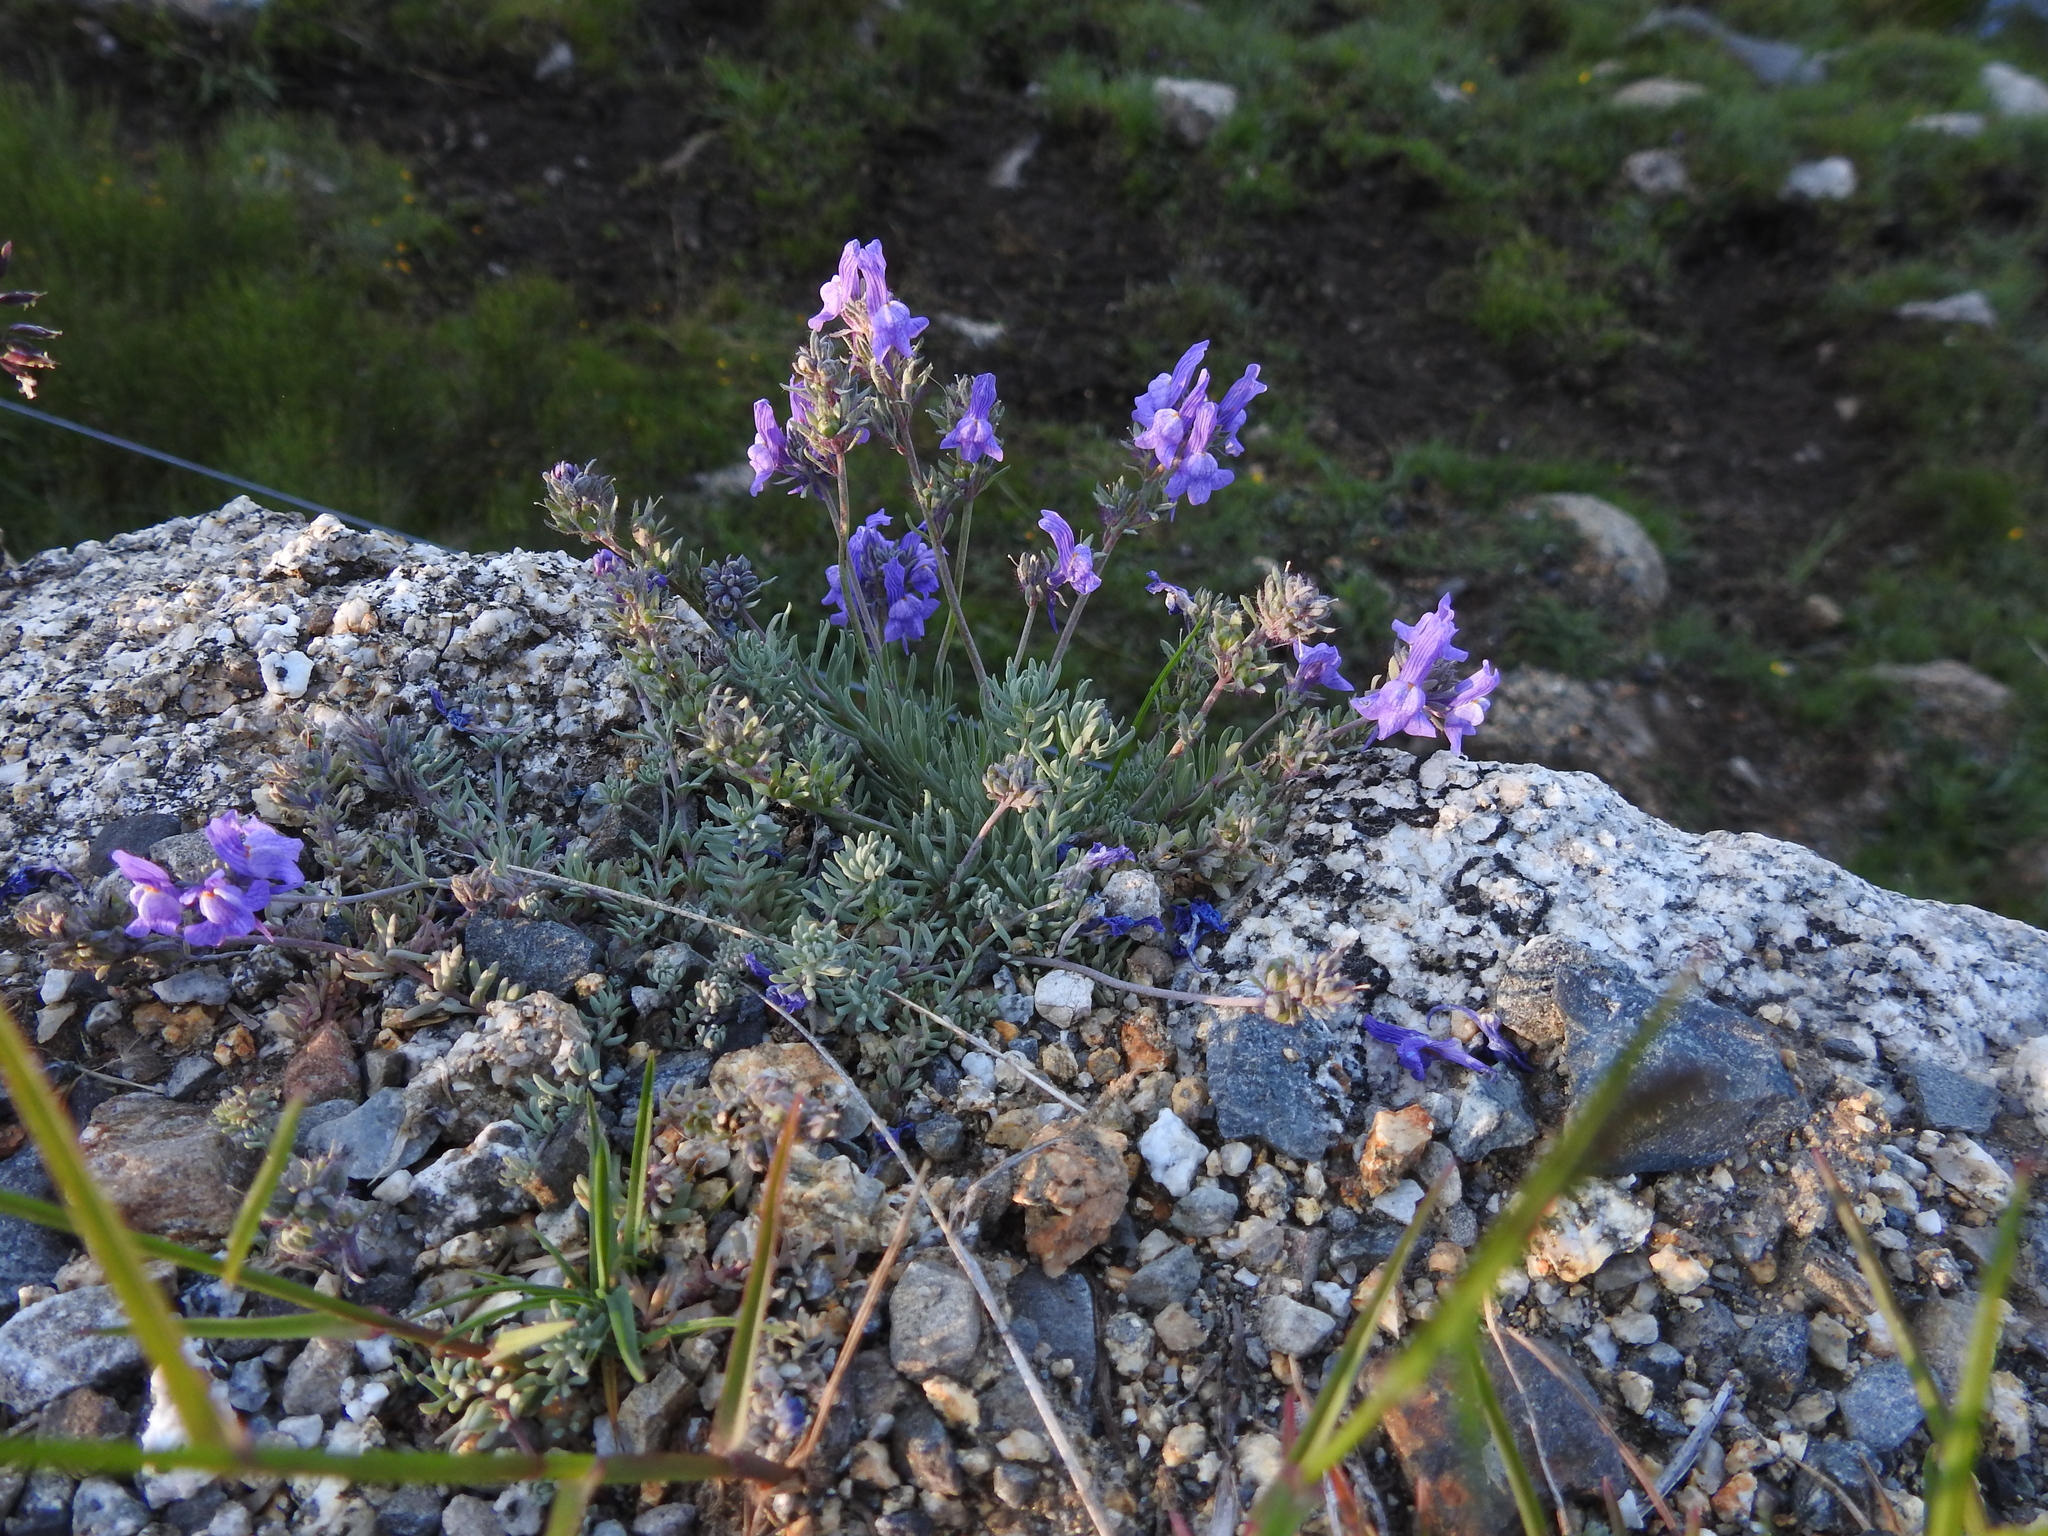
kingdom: Plantae
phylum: Tracheophyta
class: Magnoliopsida
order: Lamiales
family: Plantaginaceae
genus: Linaria
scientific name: Linaria alpina
